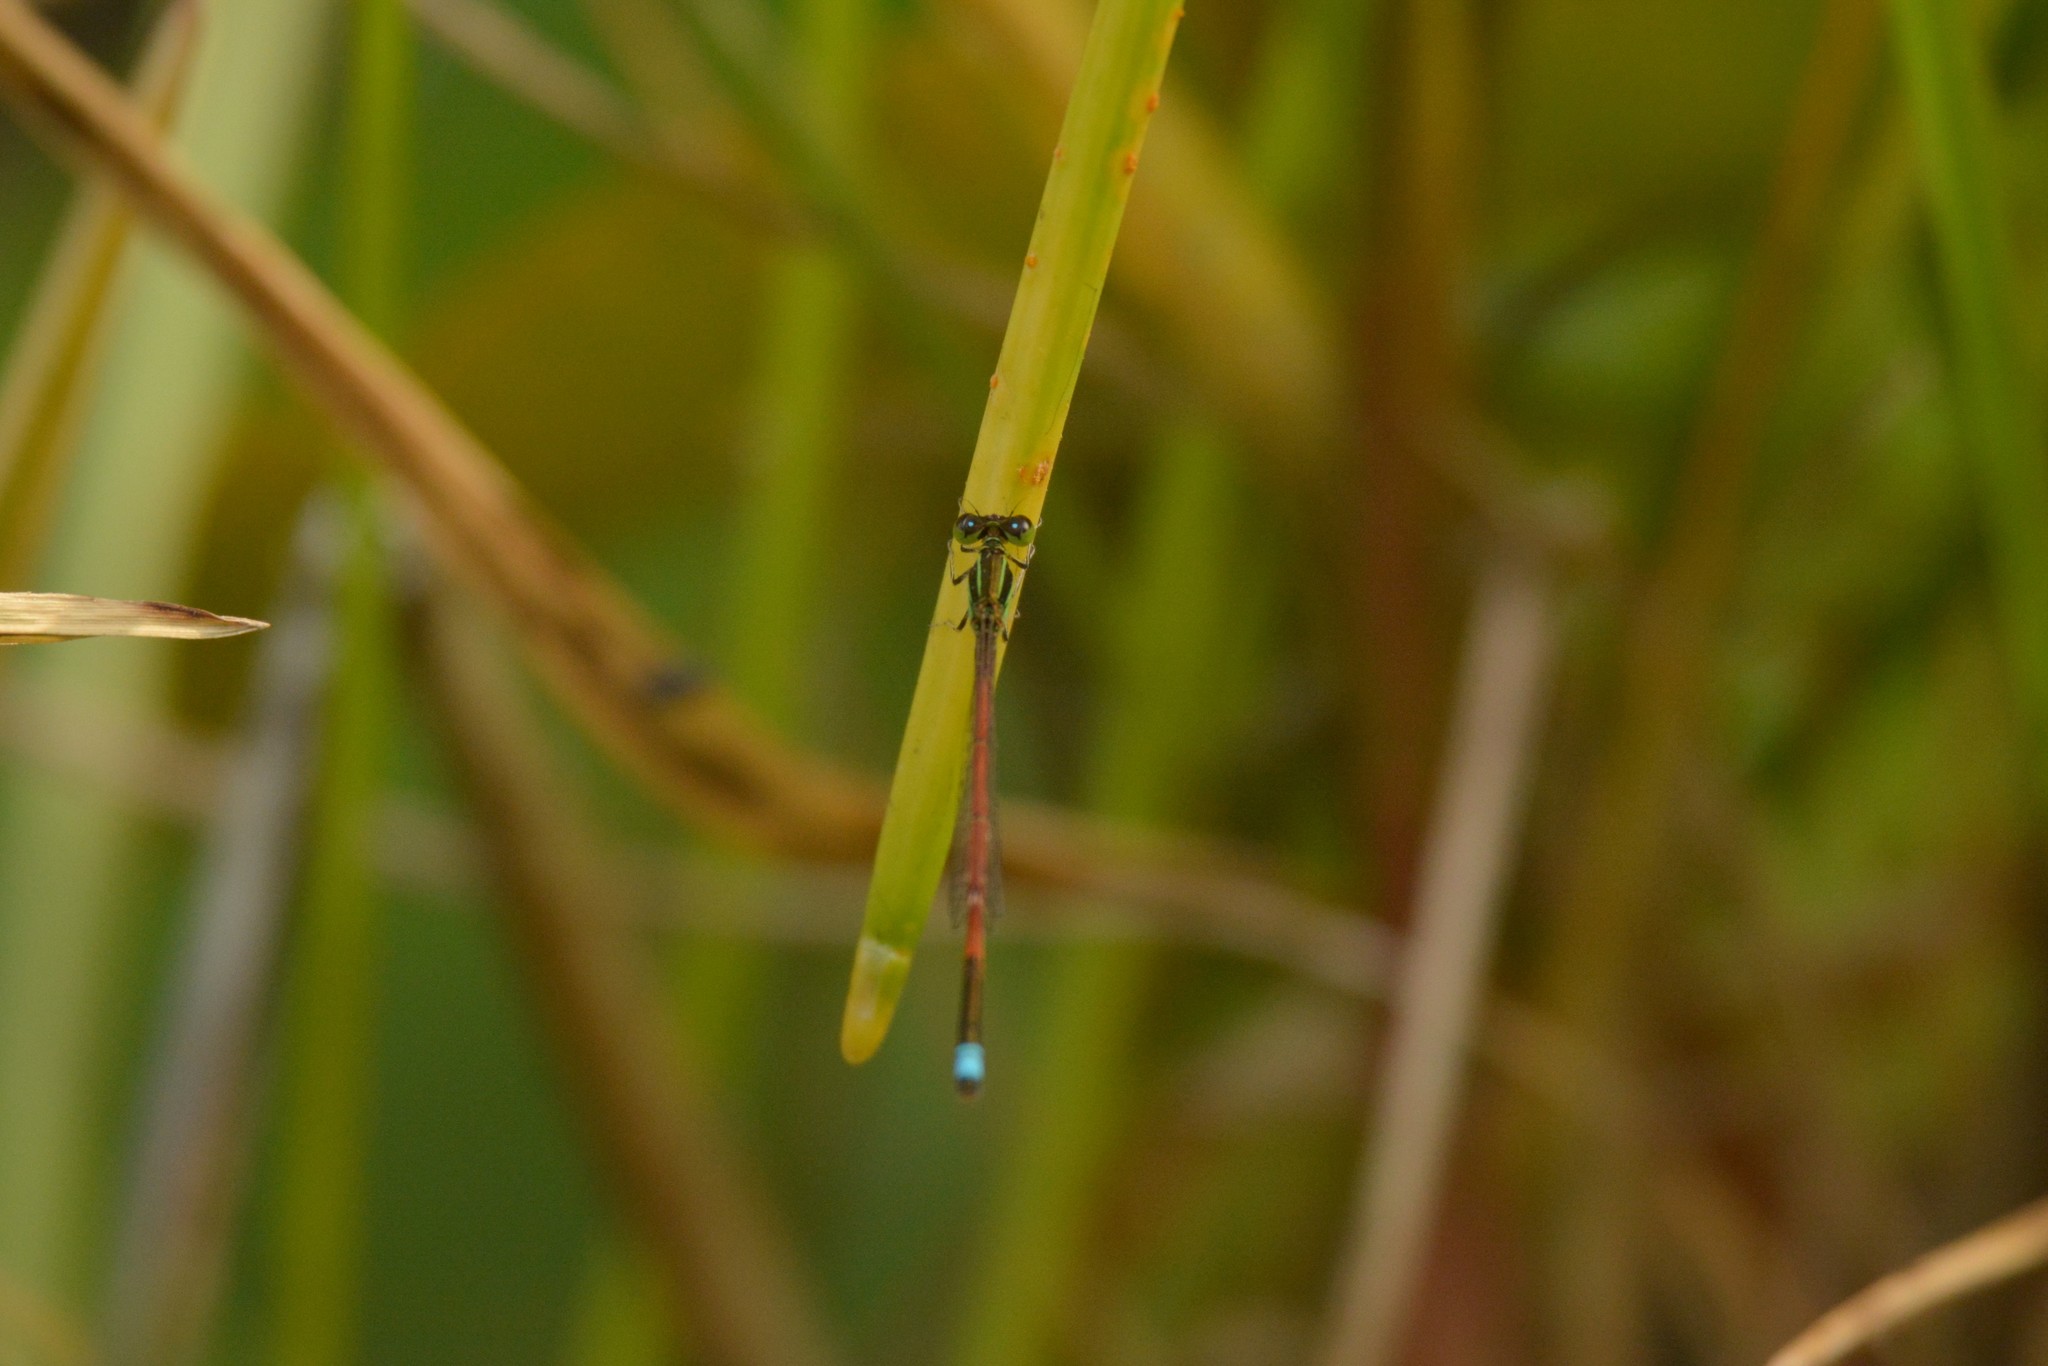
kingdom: Animalia
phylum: Arthropoda
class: Insecta
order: Odonata
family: Coenagrionidae
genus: Ischnura
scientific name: Ischnura aurora
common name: Gossamer damselfly
